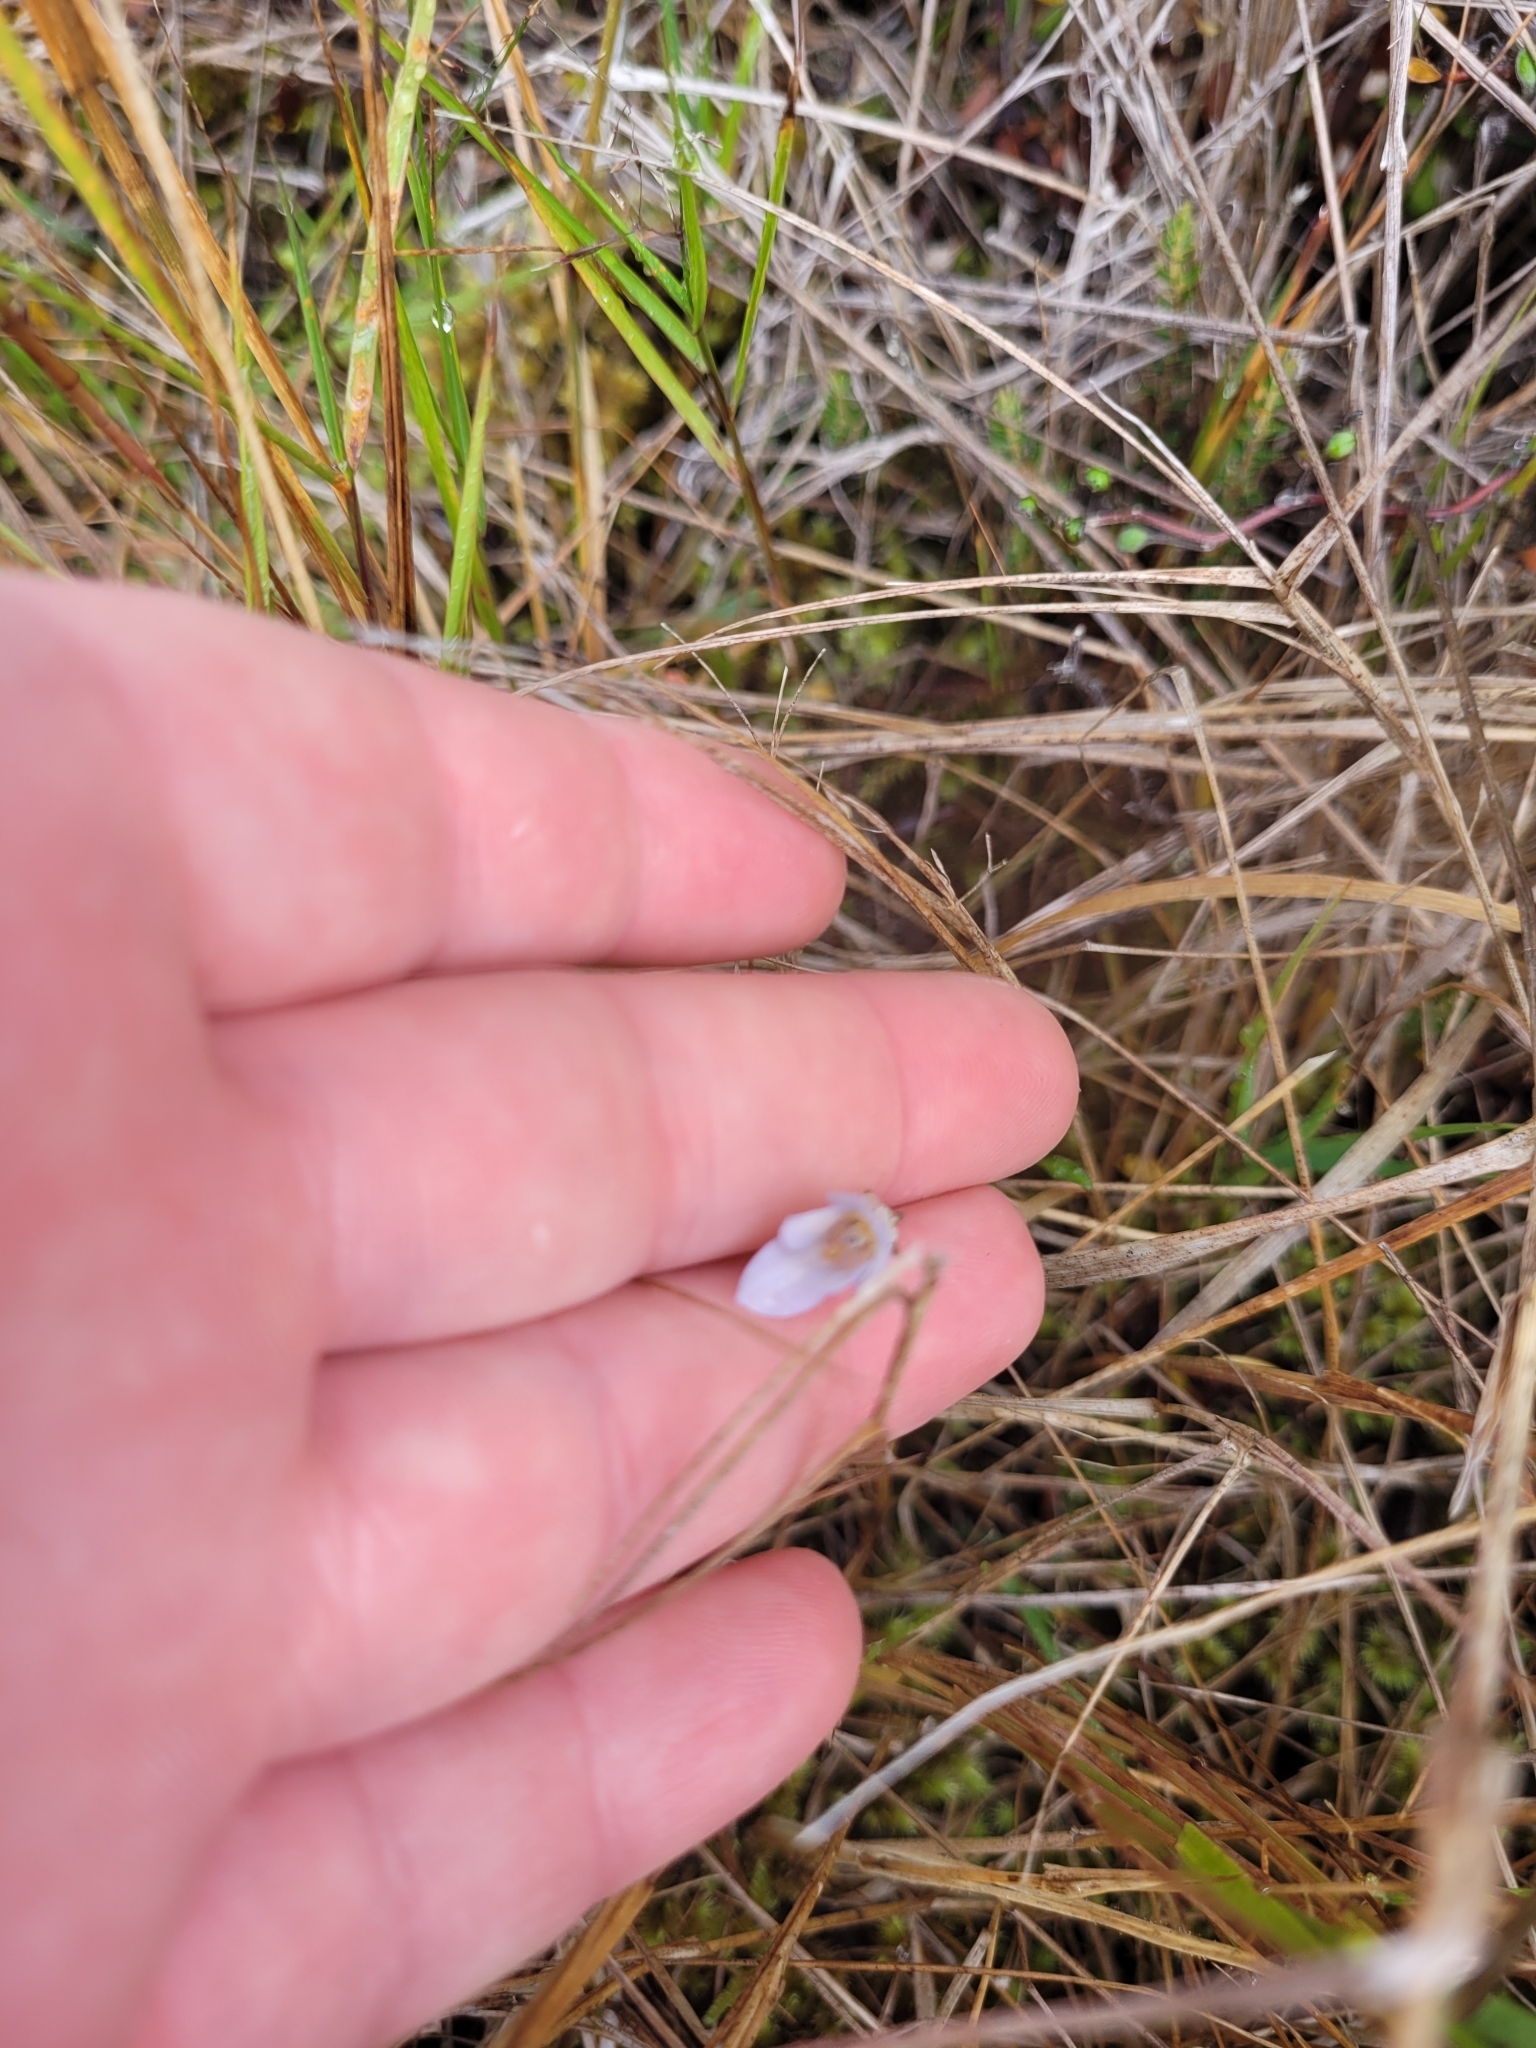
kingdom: Plantae
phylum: Tracheophyta
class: Magnoliopsida
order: Asterales
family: Campanulaceae
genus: Wahlenbergia
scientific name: Wahlenbergia albomarginata
